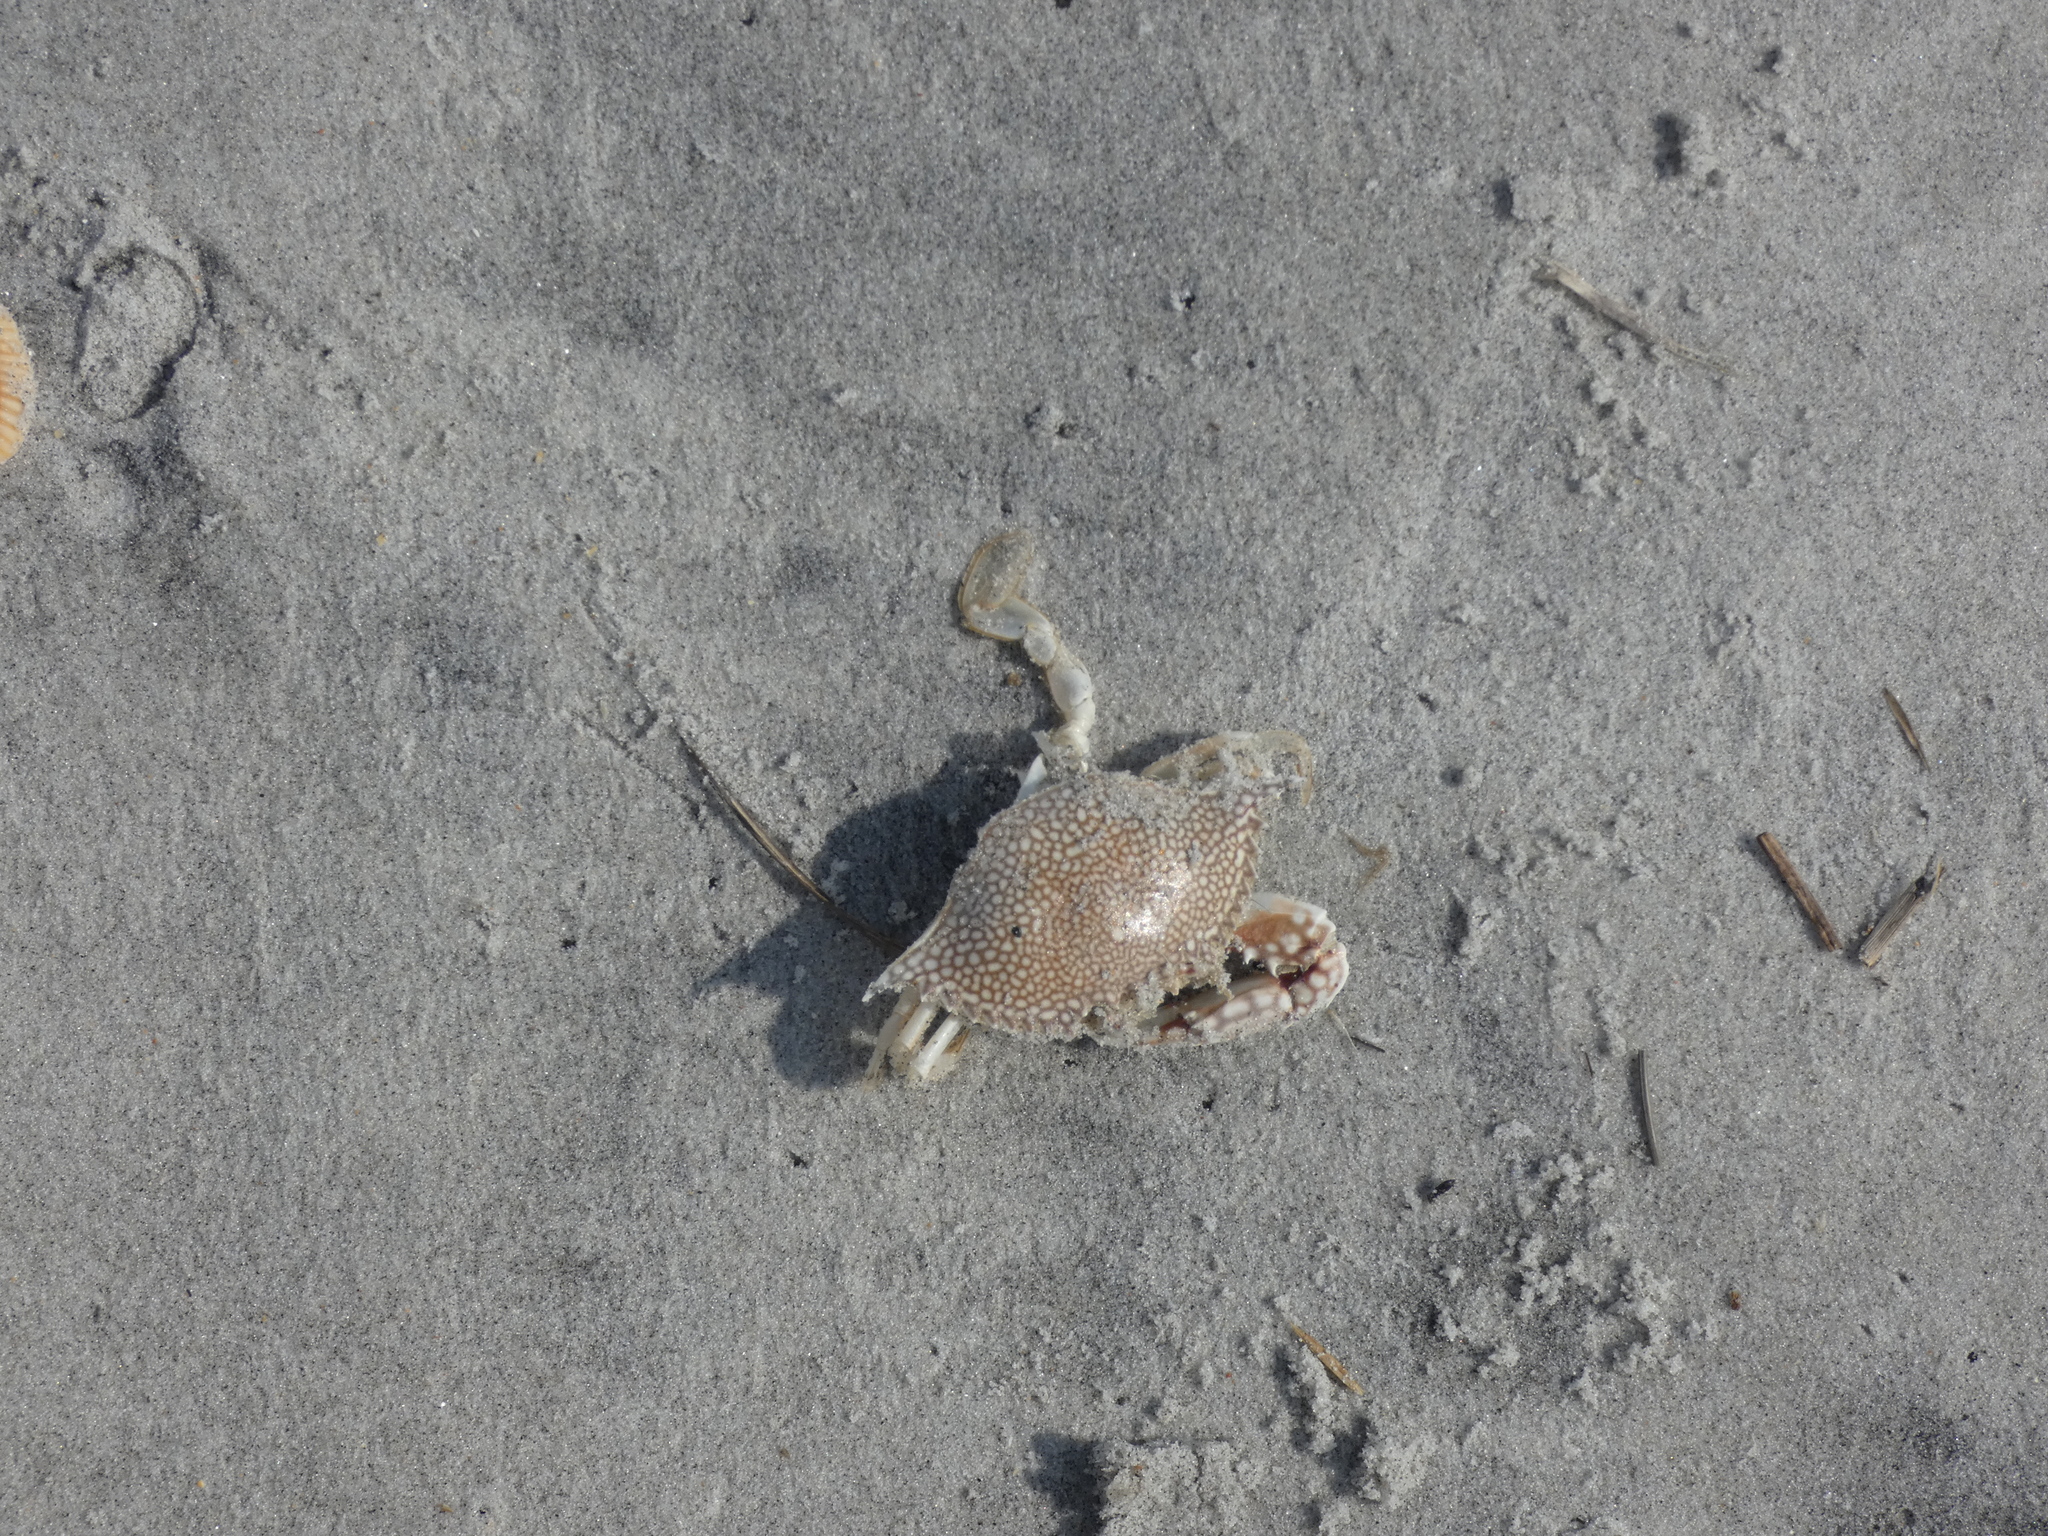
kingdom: Animalia
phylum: Arthropoda
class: Malacostraca
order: Decapoda
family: Portunidae
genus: Arenaeus
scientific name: Arenaeus cribrarius
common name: Speckled crab
